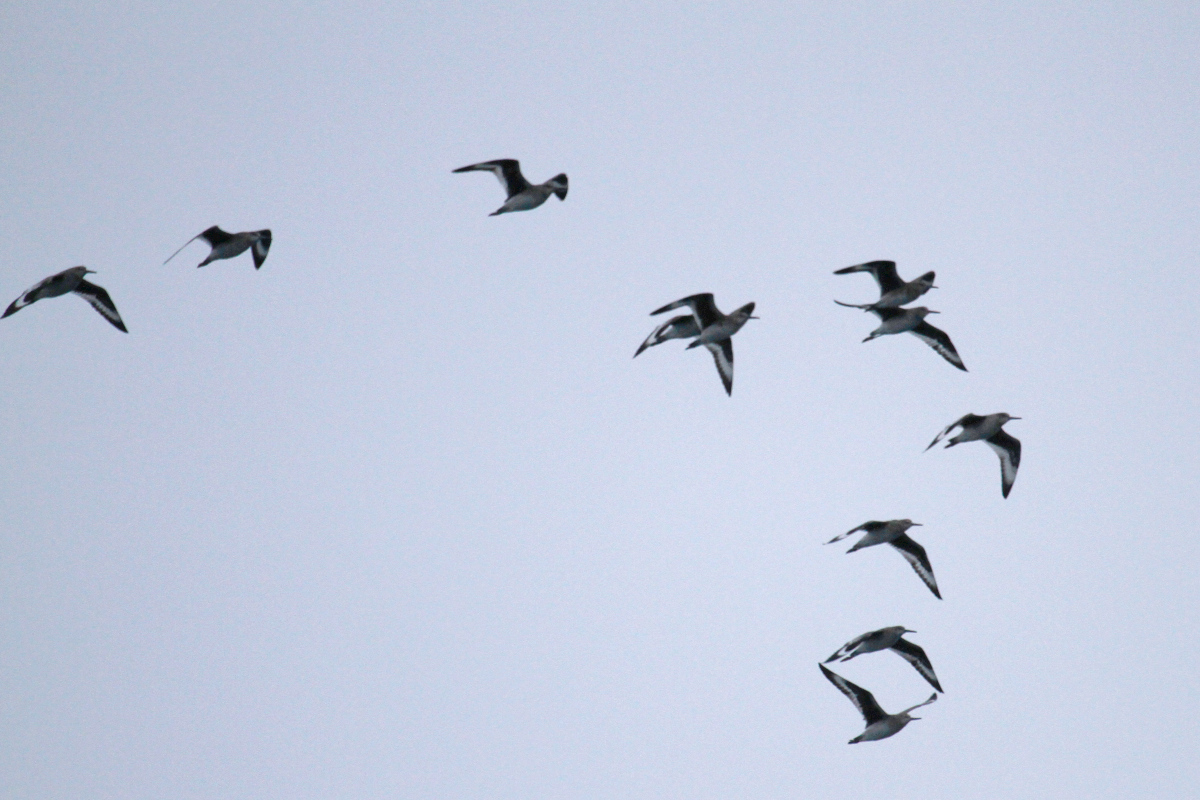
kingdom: Animalia
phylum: Chordata
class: Aves
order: Charadriiformes
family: Scolopacidae
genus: Tringa
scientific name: Tringa semipalmata
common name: Willet
